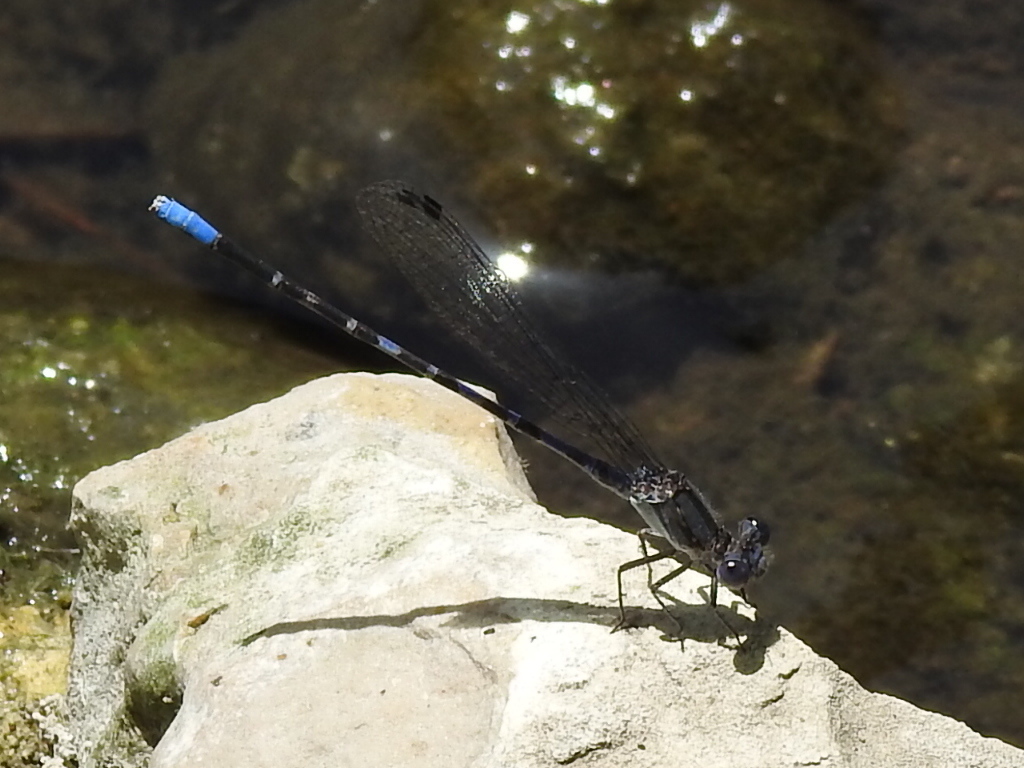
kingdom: Animalia
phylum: Arthropoda
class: Insecta
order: Odonata
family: Coenagrionidae
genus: Argia
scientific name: Argia immunda
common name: Kiowa dancer
